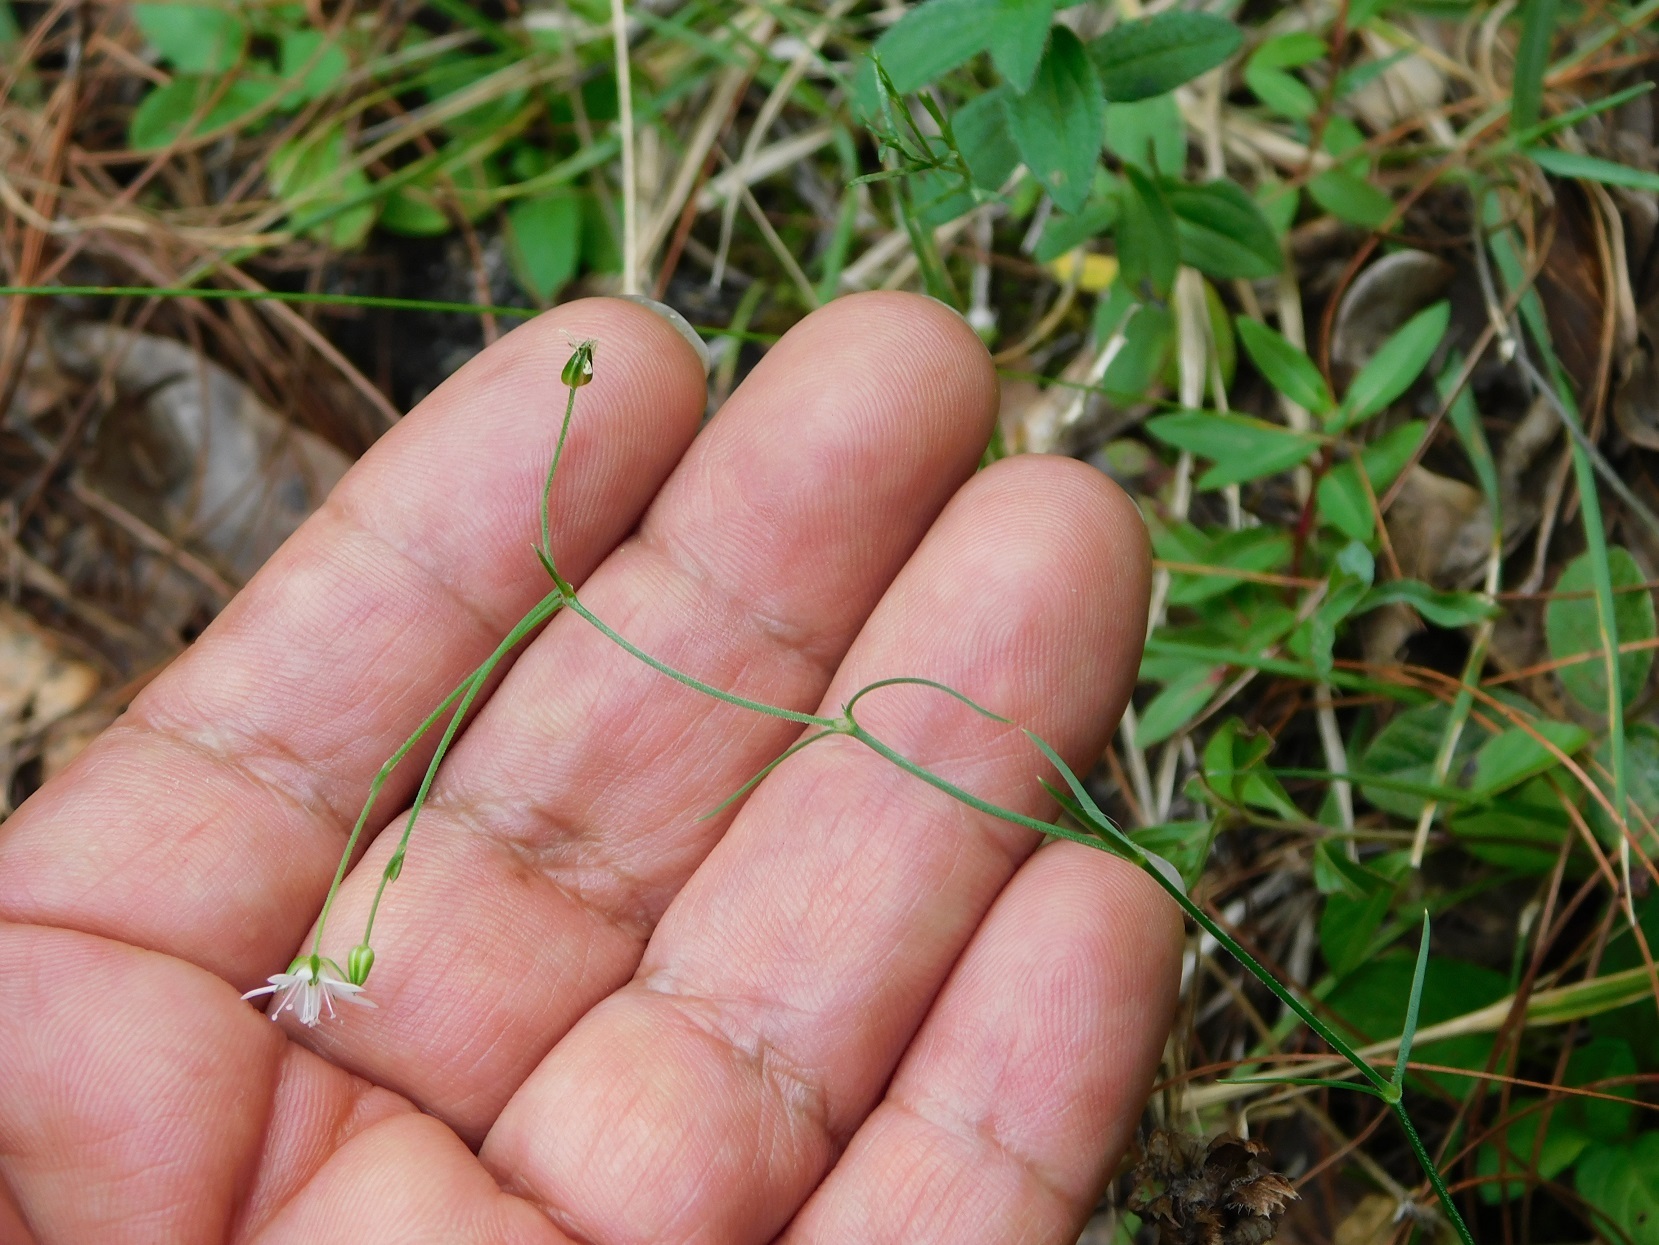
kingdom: Plantae
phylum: Tracheophyta
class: Magnoliopsida
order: Caryophyllales
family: Caryophyllaceae
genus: Arenaria
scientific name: Arenaria paludicola
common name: Marsh sandwort
